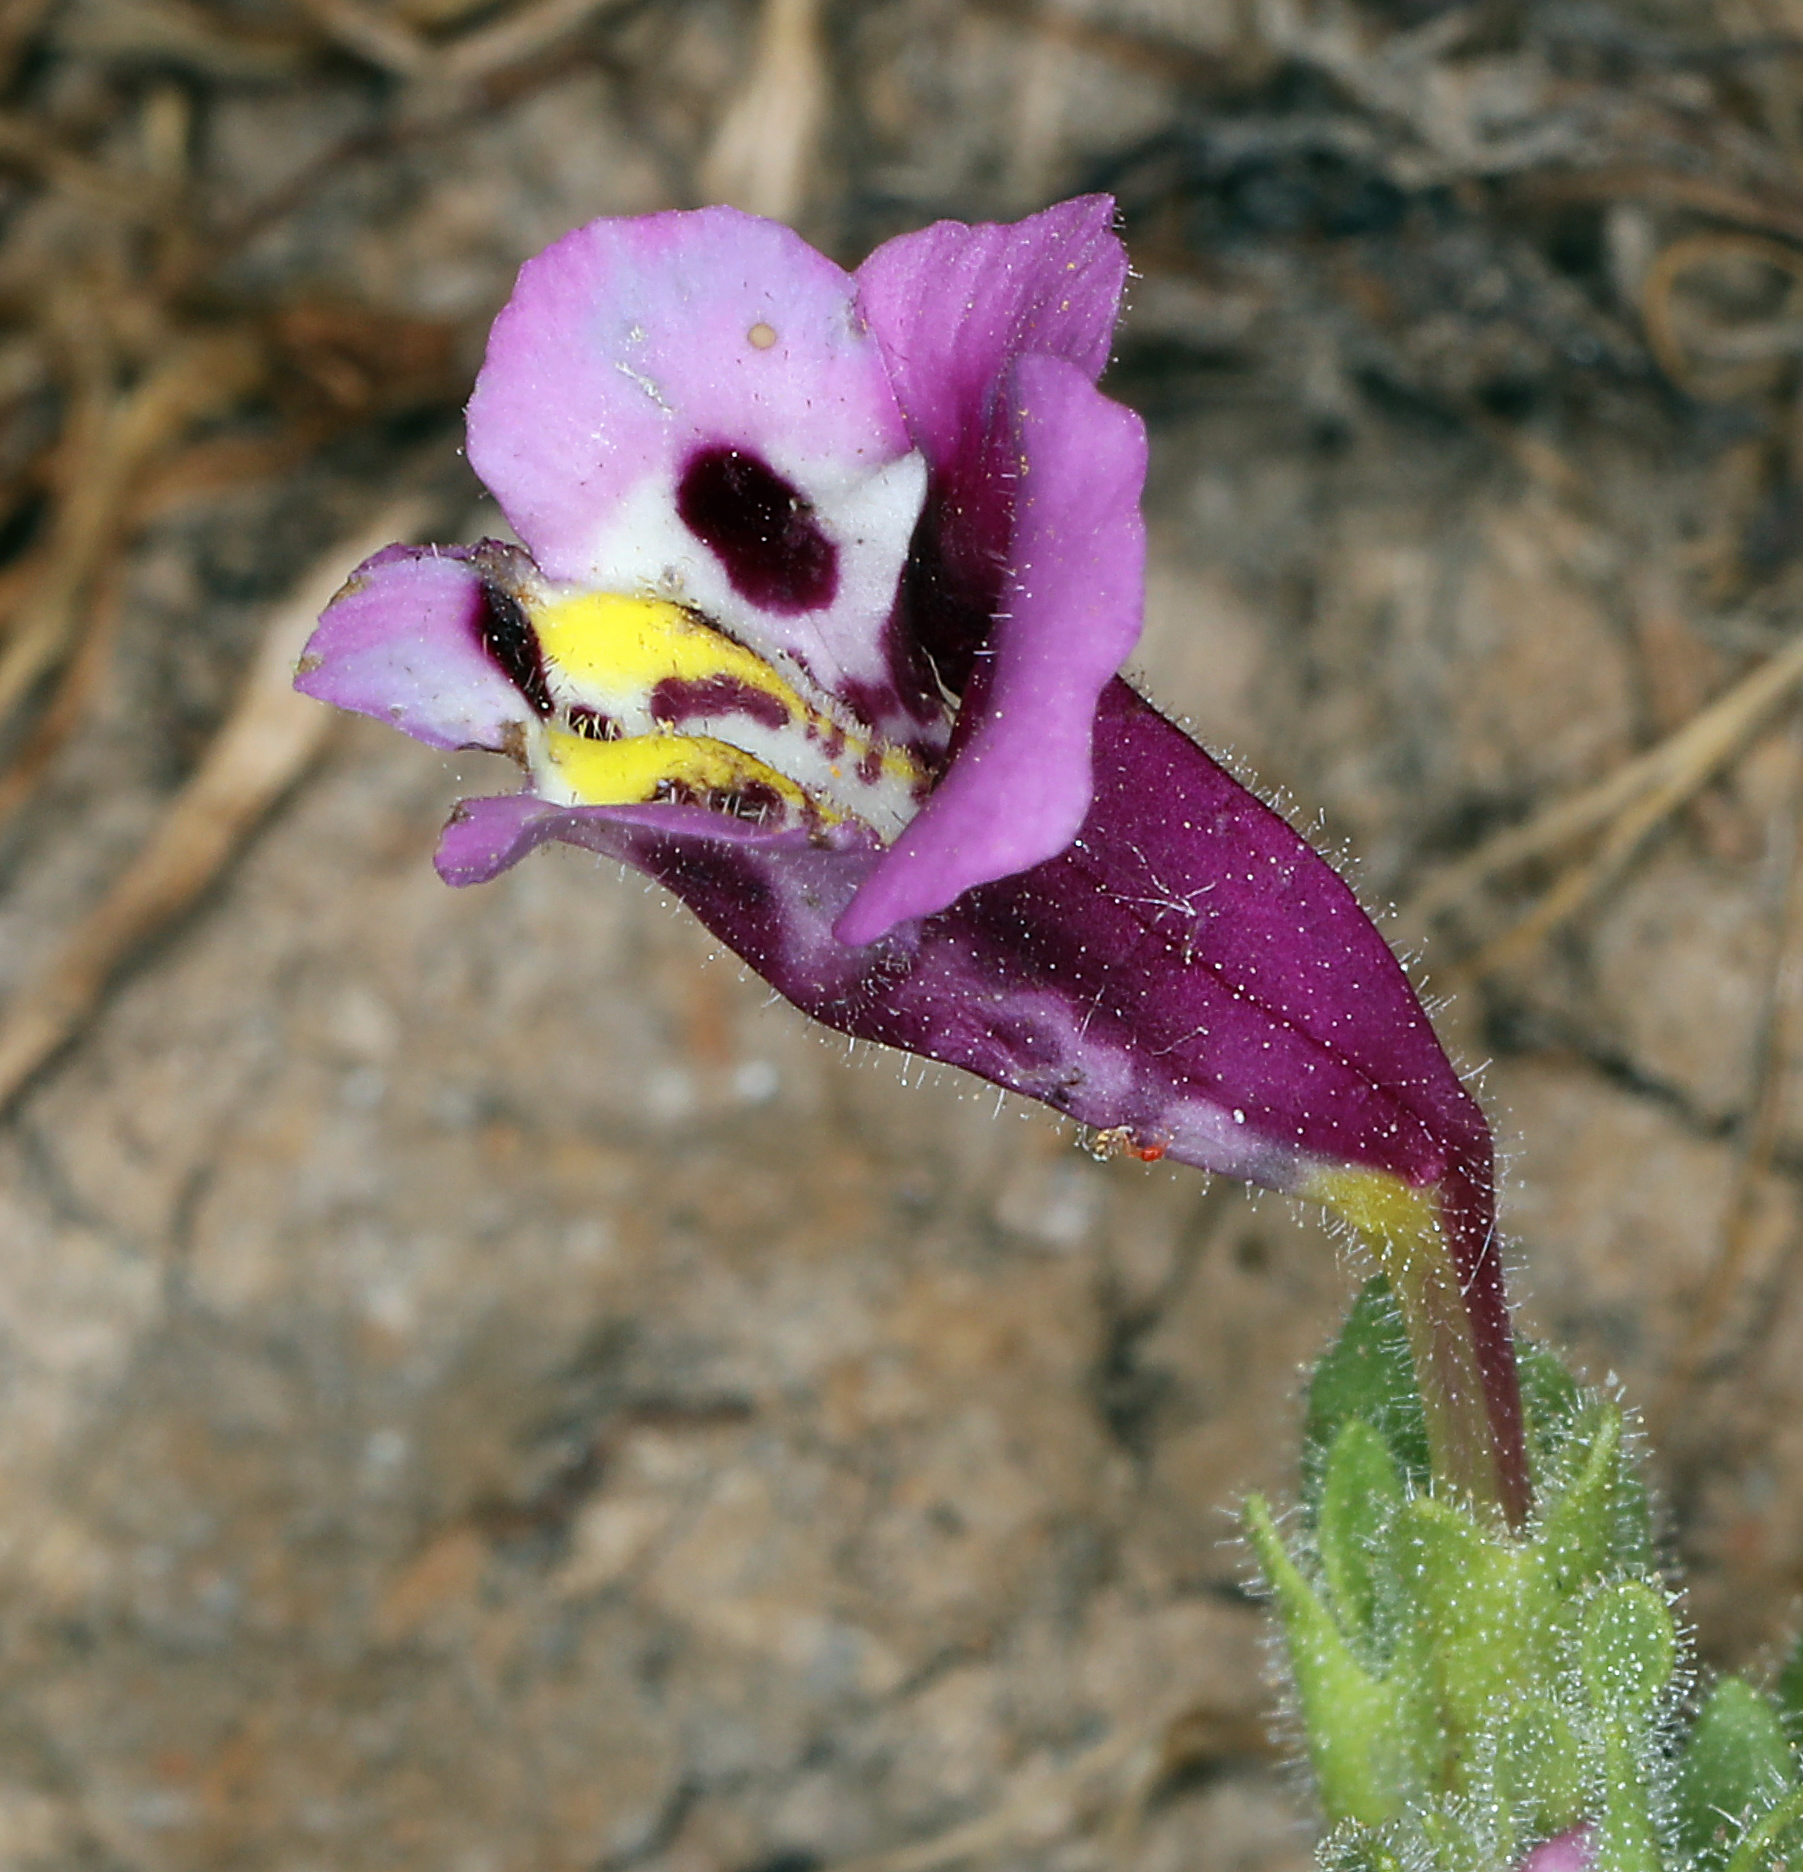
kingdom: Plantae
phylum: Tracheophyta
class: Magnoliopsida
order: Lamiales
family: Phrymaceae
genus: Diplacus
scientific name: Diplacus tricolor
